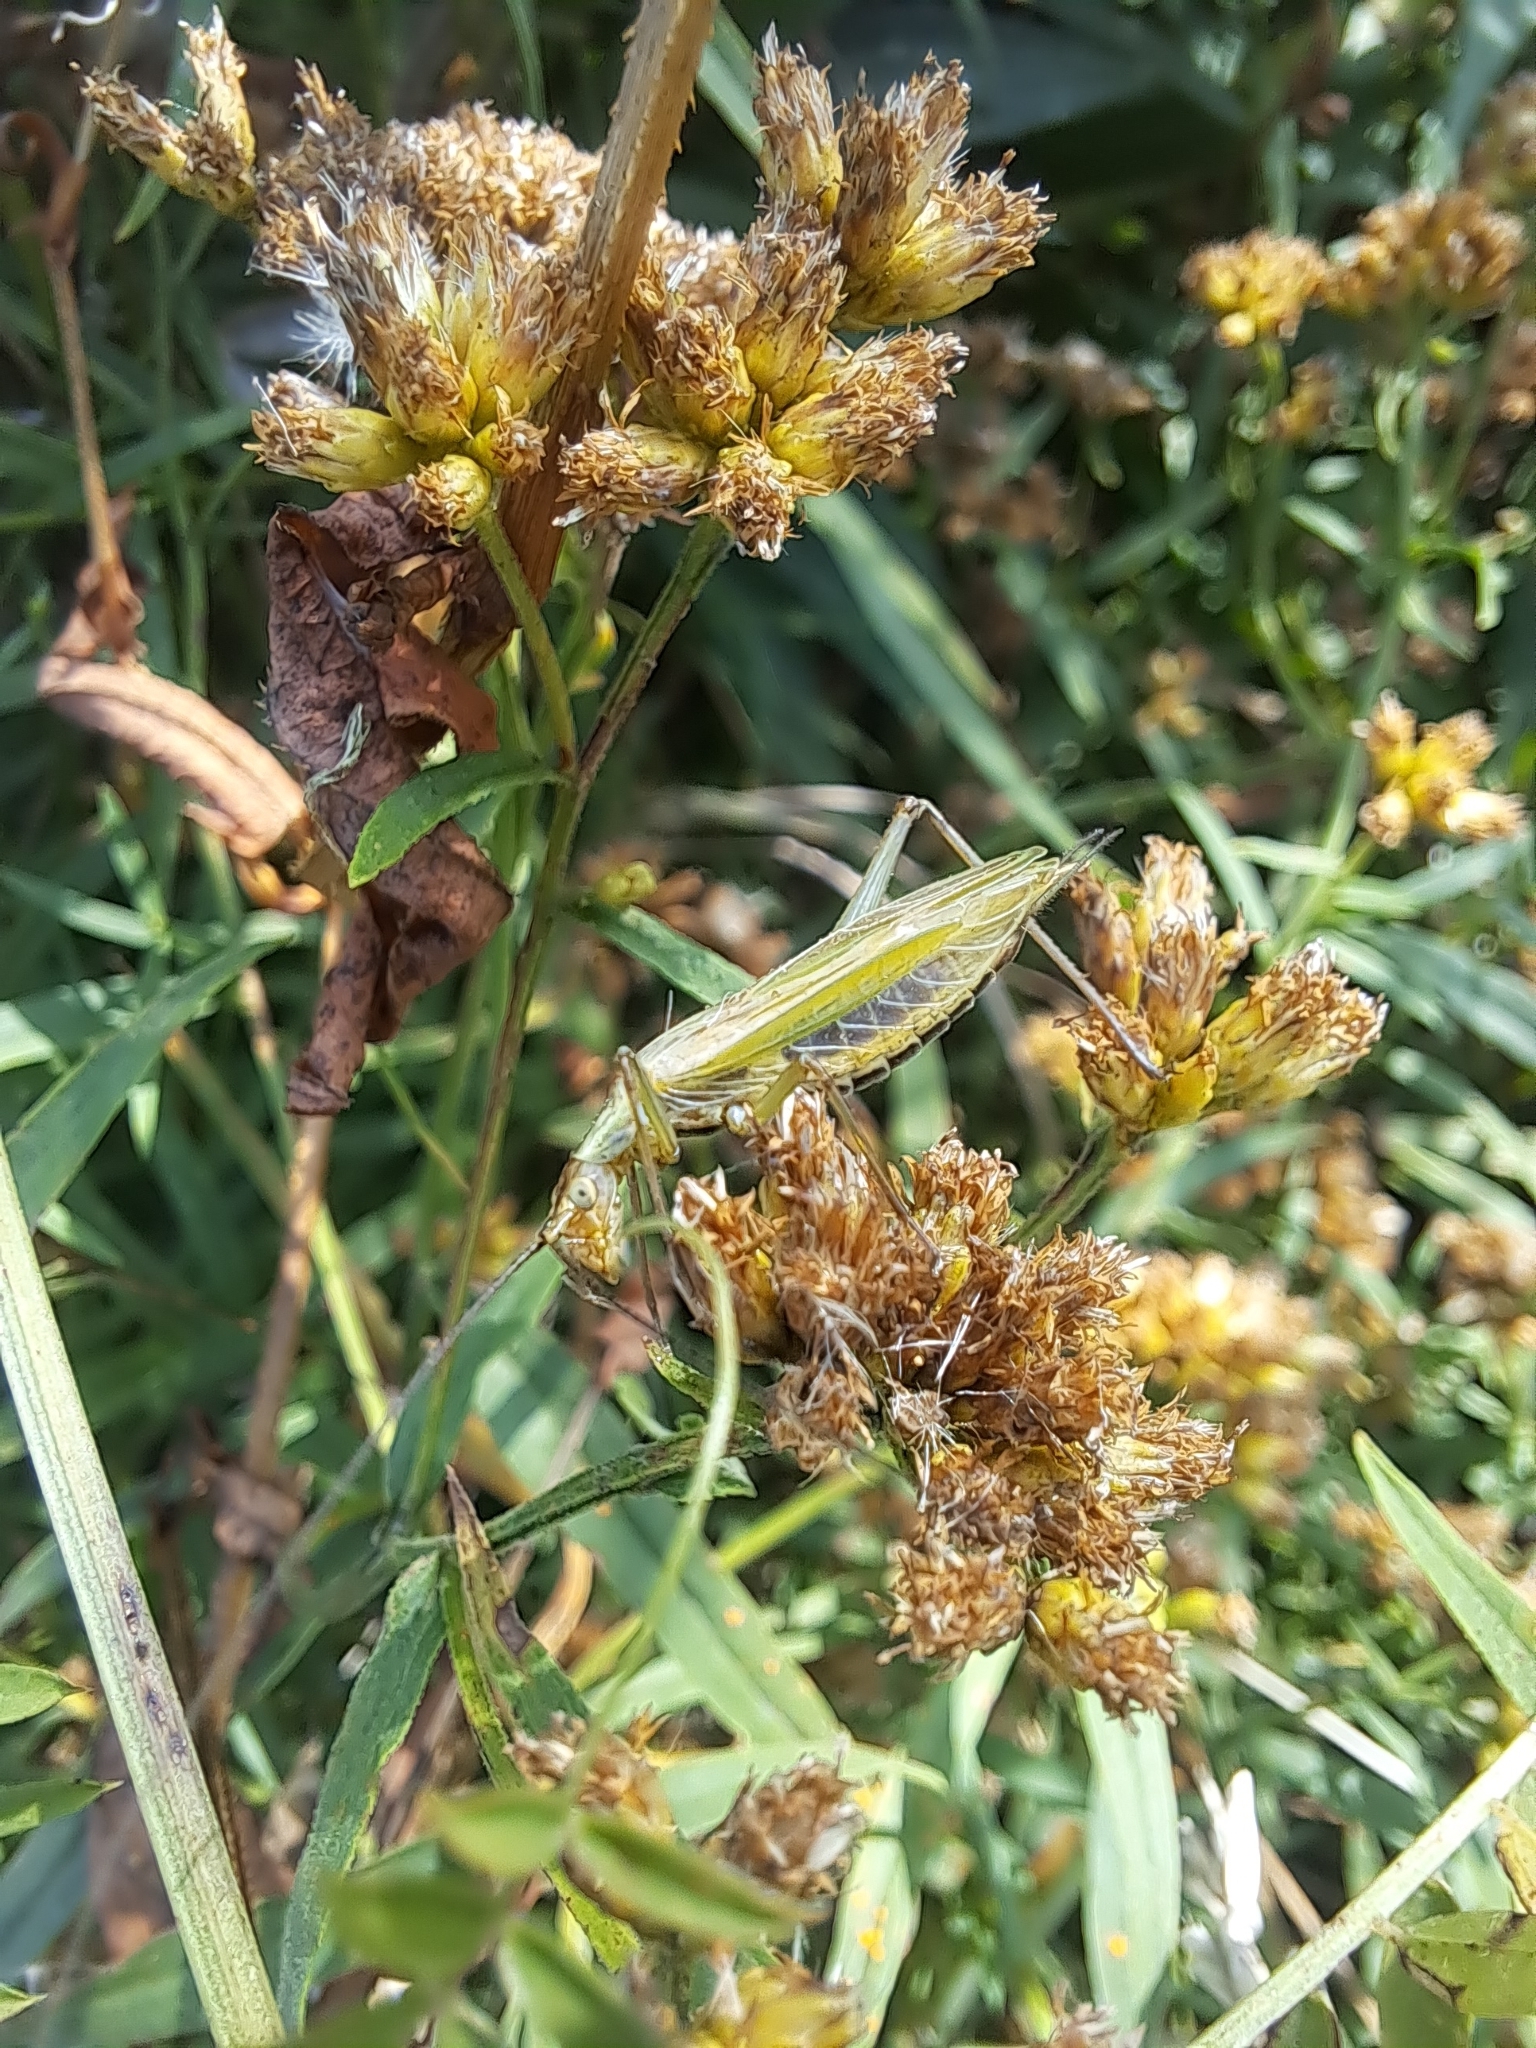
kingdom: Animalia
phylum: Arthropoda
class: Insecta
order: Orthoptera
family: Gryllidae
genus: Oecanthus
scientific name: Oecanthus nigricornis
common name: Black-horned tree cricket
